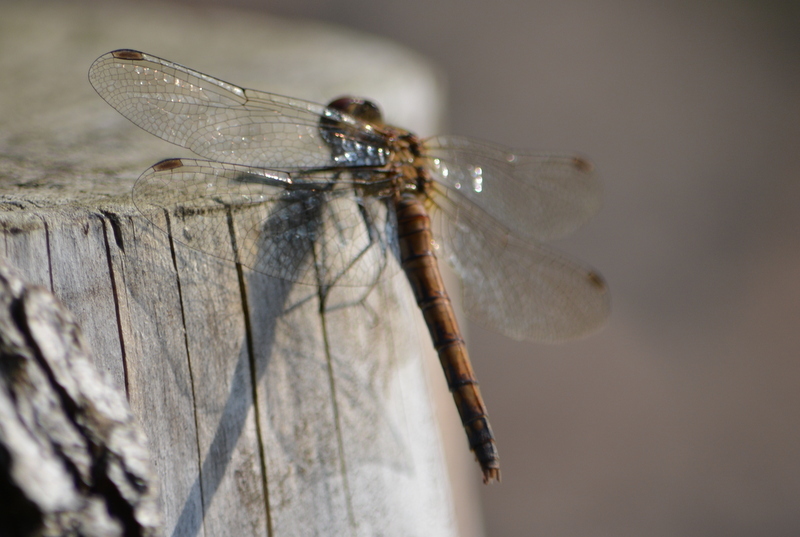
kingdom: Animalia
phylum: Arthropoda
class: Insecta
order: Odonata
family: Libellulidae
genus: Sympetrum
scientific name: Sympetrum striolatum
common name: Common darter
